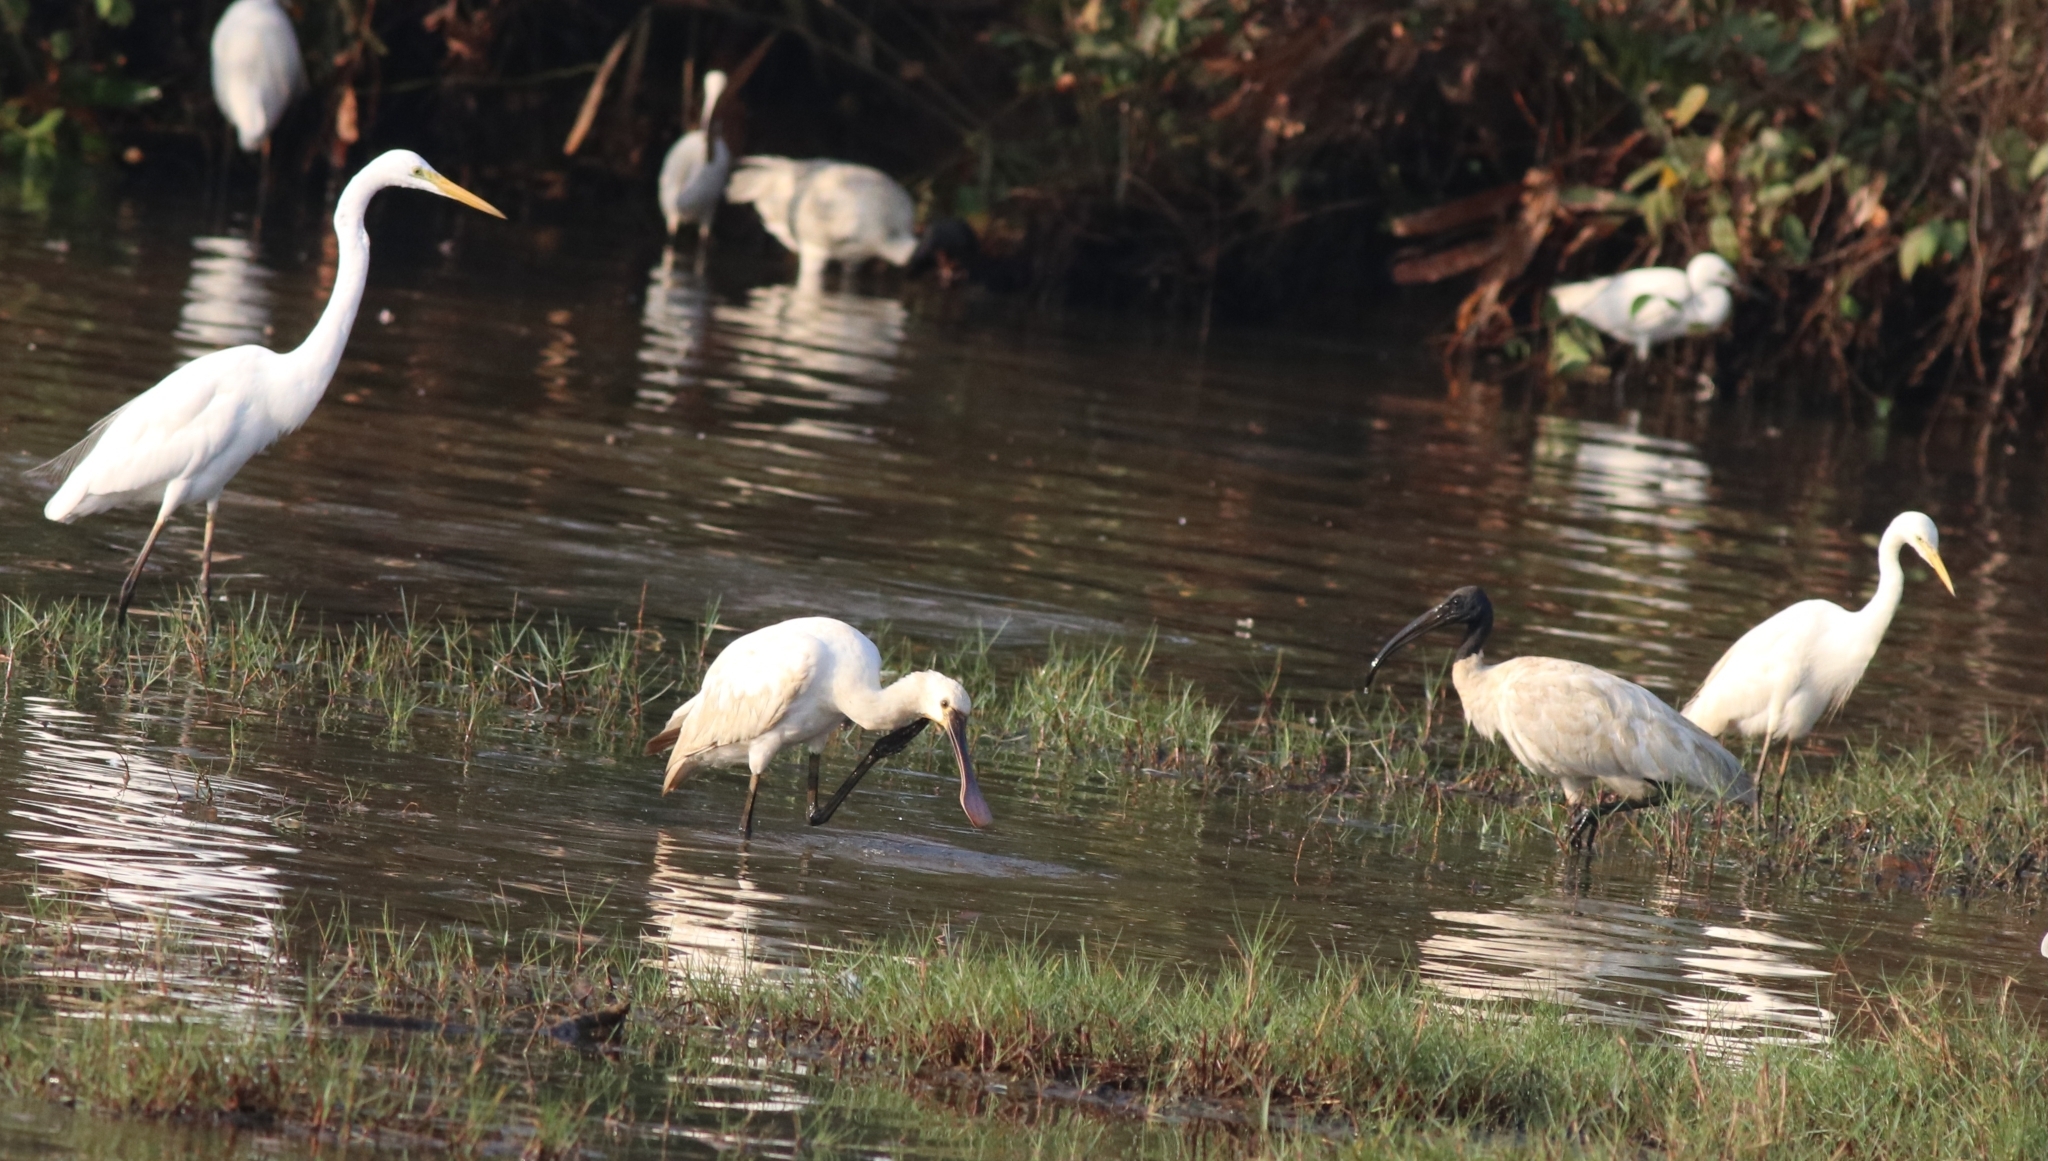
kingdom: Animalia
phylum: Chordata
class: Aves
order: Pelecaniformes
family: Threskiornithidae
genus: Threskiornis
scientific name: Threskiornis melanocephalus
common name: Black-headed ibis
